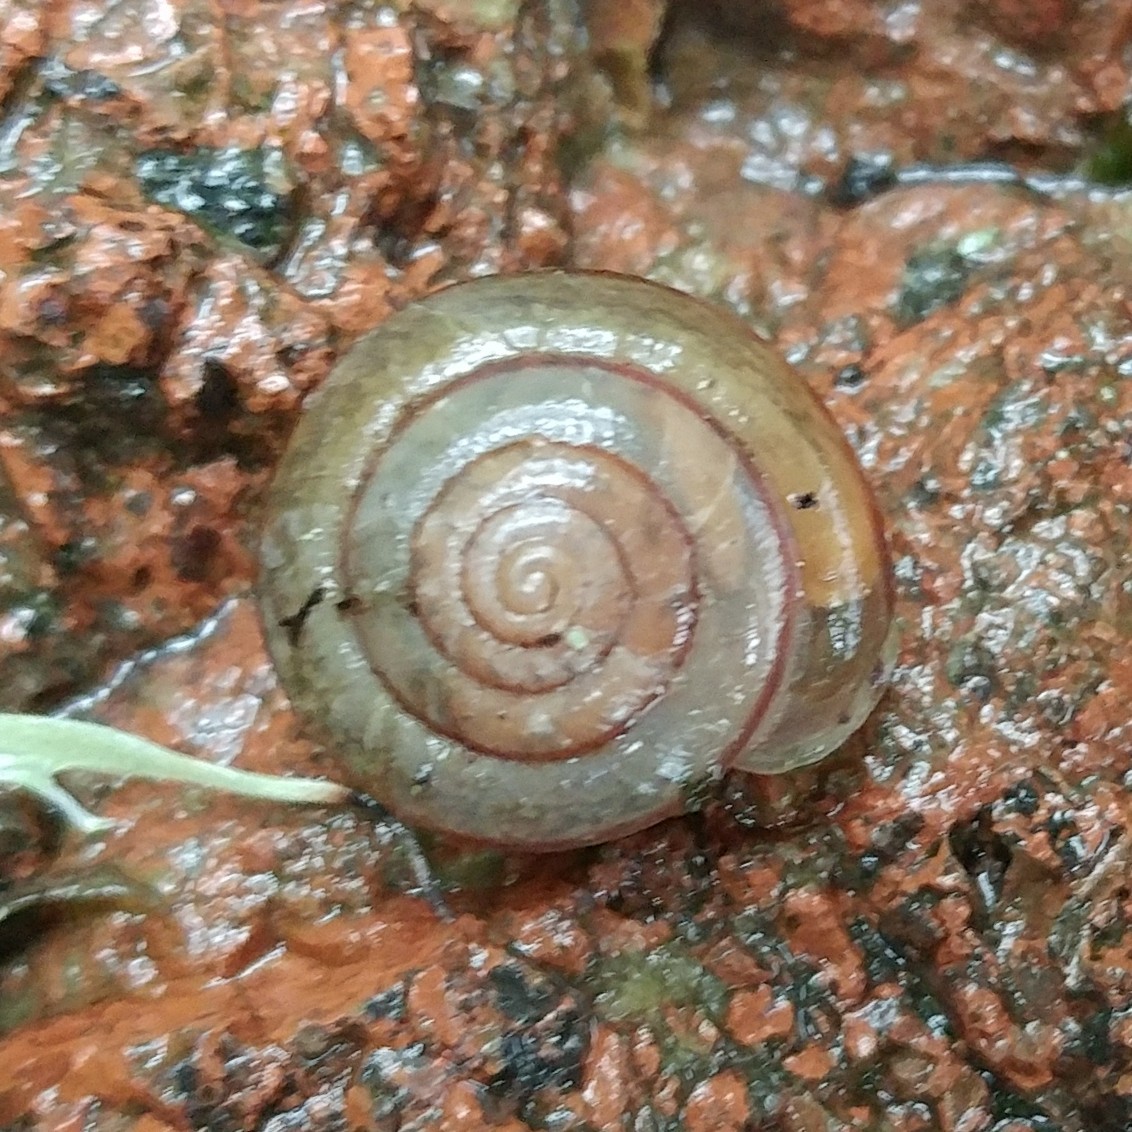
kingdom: Animalia
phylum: Mollusca
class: Gastropoda
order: Stylommatophora
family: Xanthonychidae
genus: Micrarionta
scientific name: Micrarionta gabbii
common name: Gabb's snail
